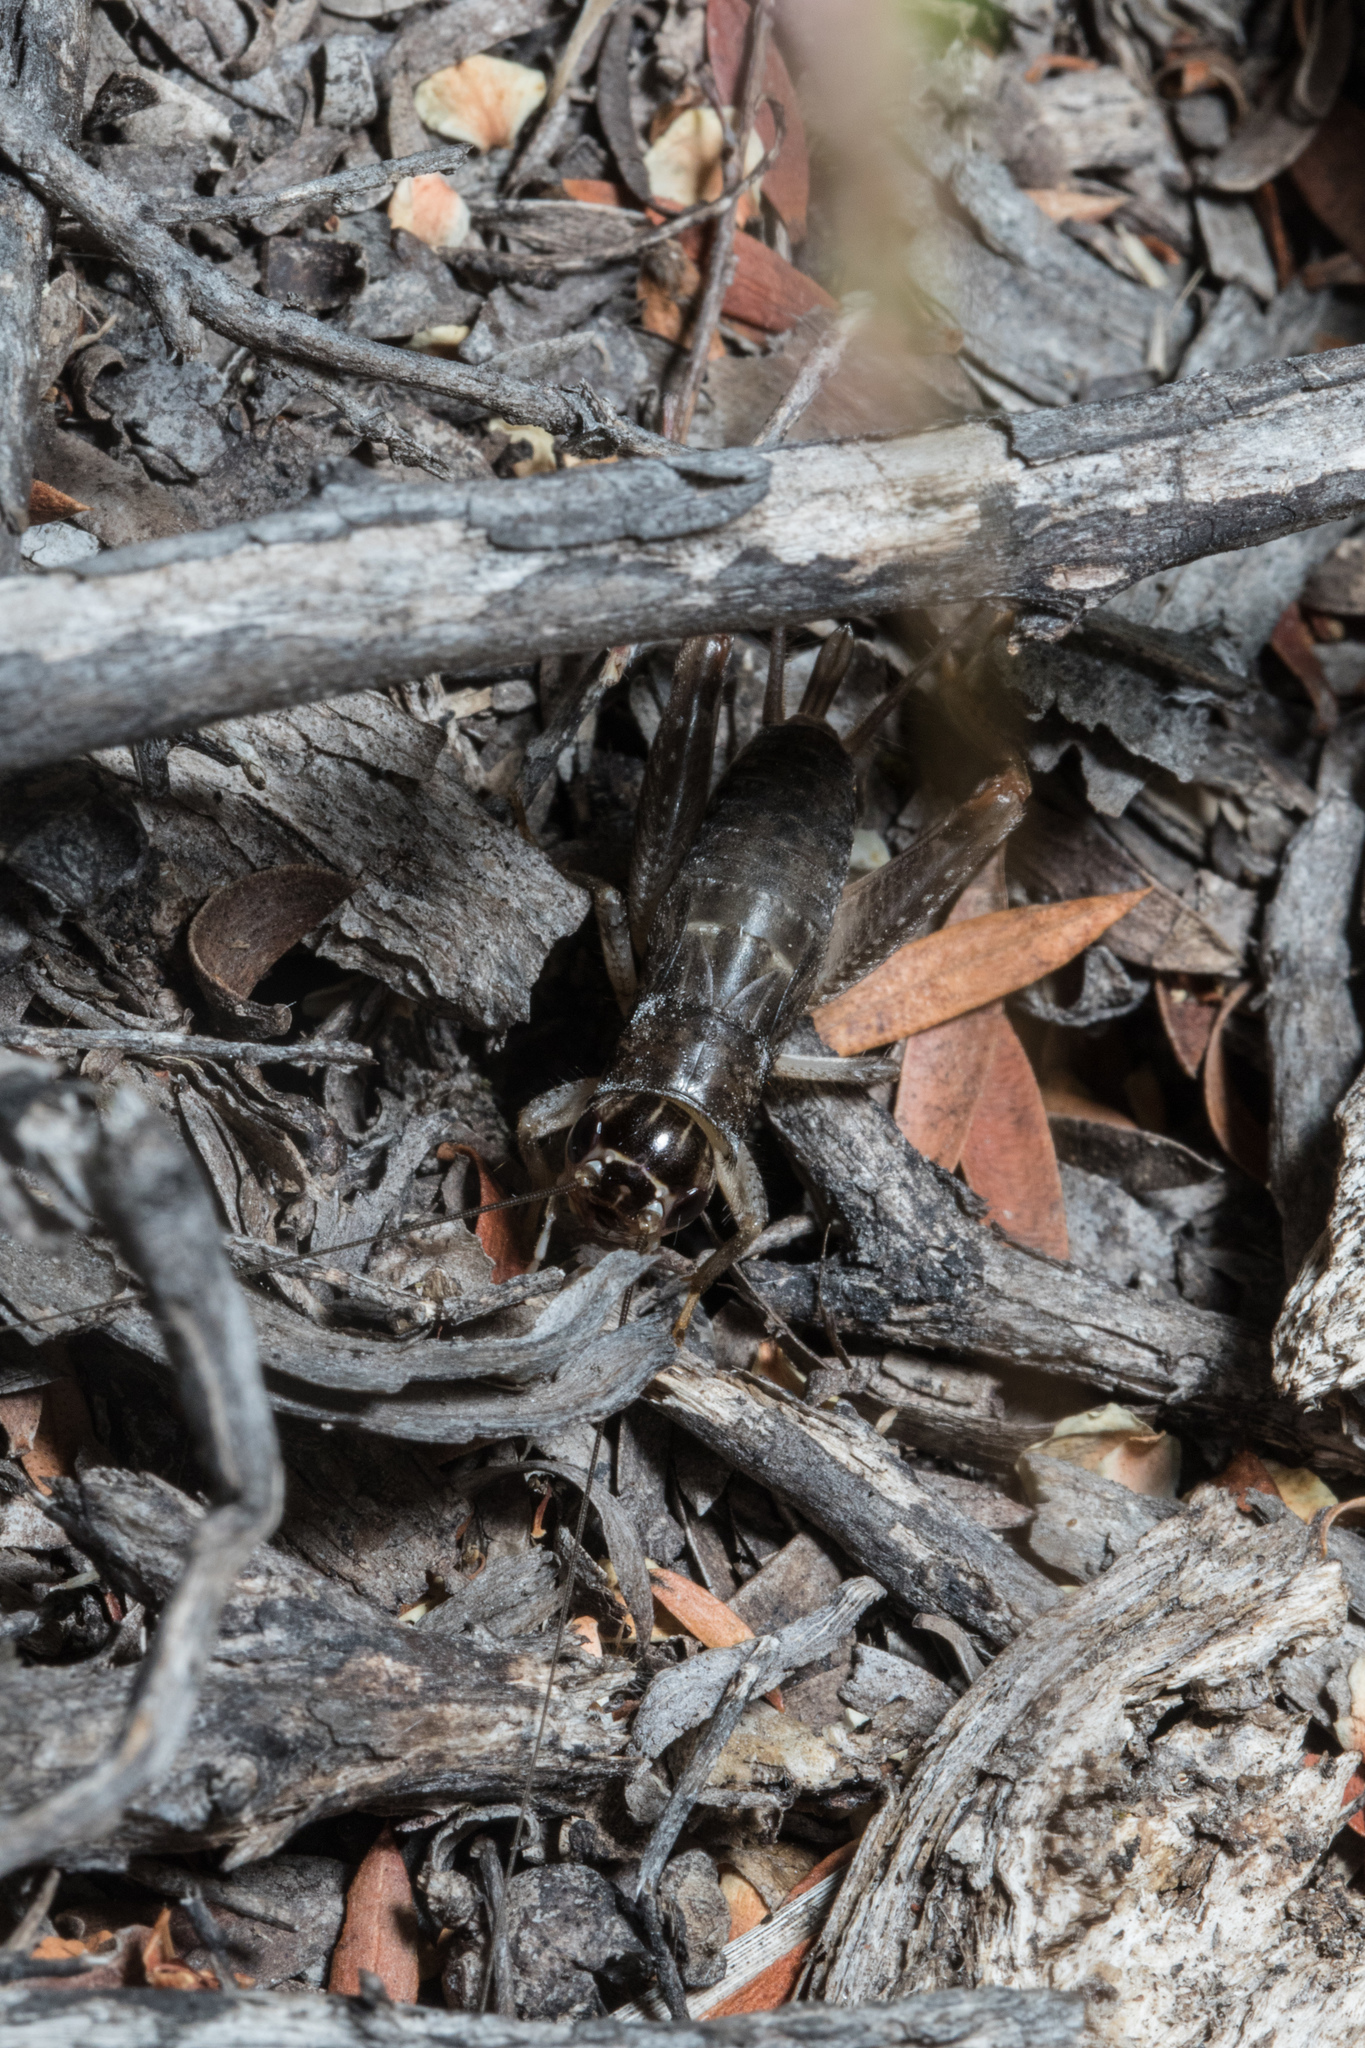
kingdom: Animalia
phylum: Arthropoda
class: Insecta
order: Orthoptera
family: Gryllidae
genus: Lepidogryllus
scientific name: Lepidogryllus parvulus
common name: Fast-chirping field crickets
